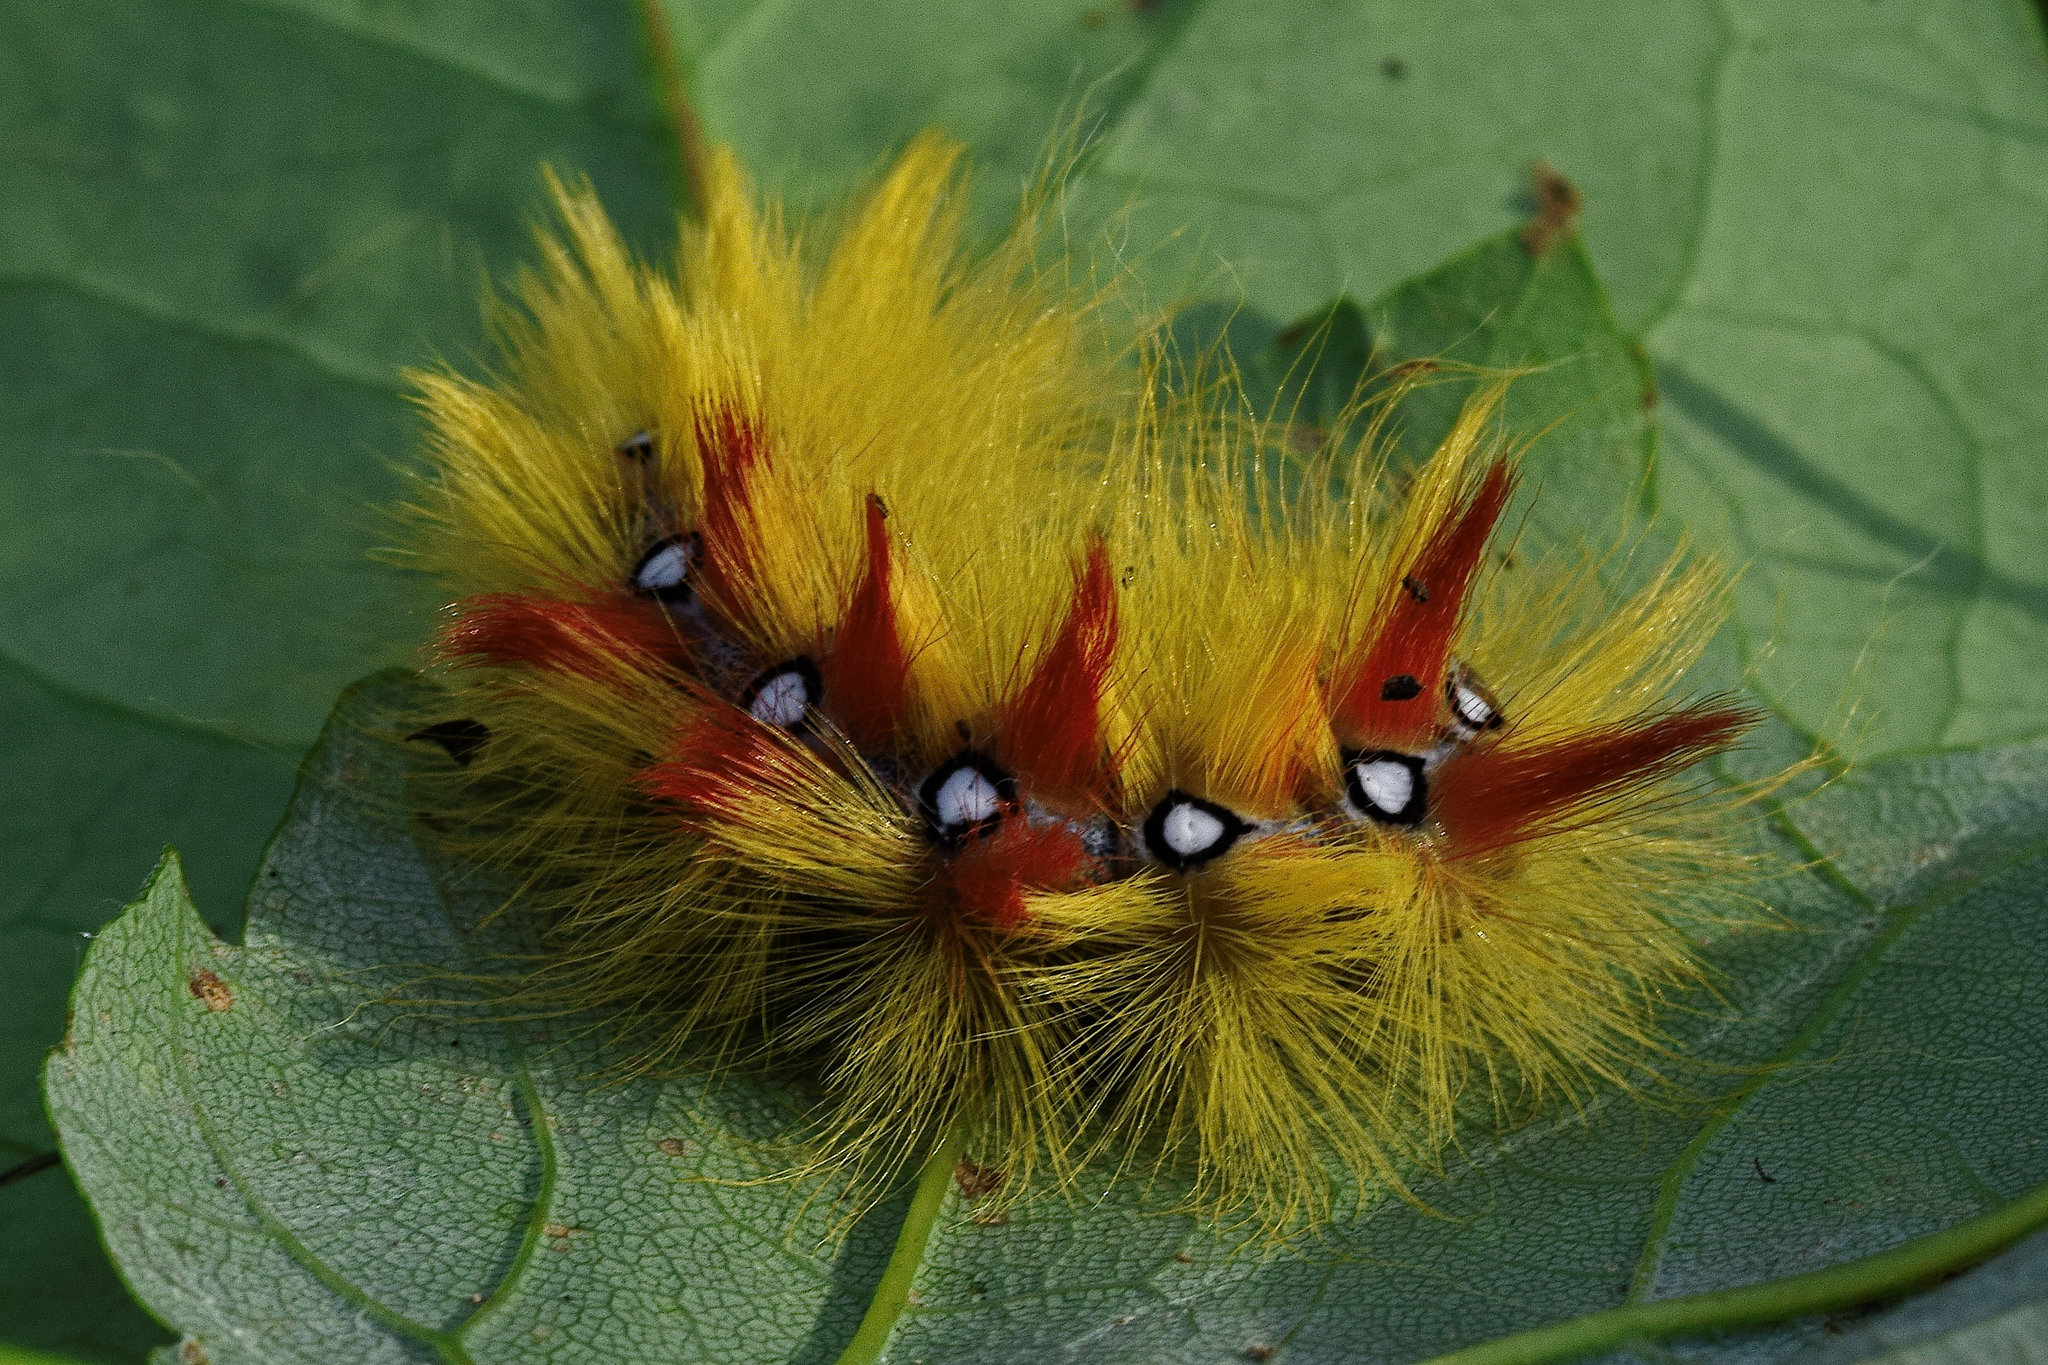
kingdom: Animalia
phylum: Arthropoda
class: Insecta
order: Lepidoptera
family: Noctuidae
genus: Acronicta
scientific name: Acronicta aceris
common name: Sycamore
